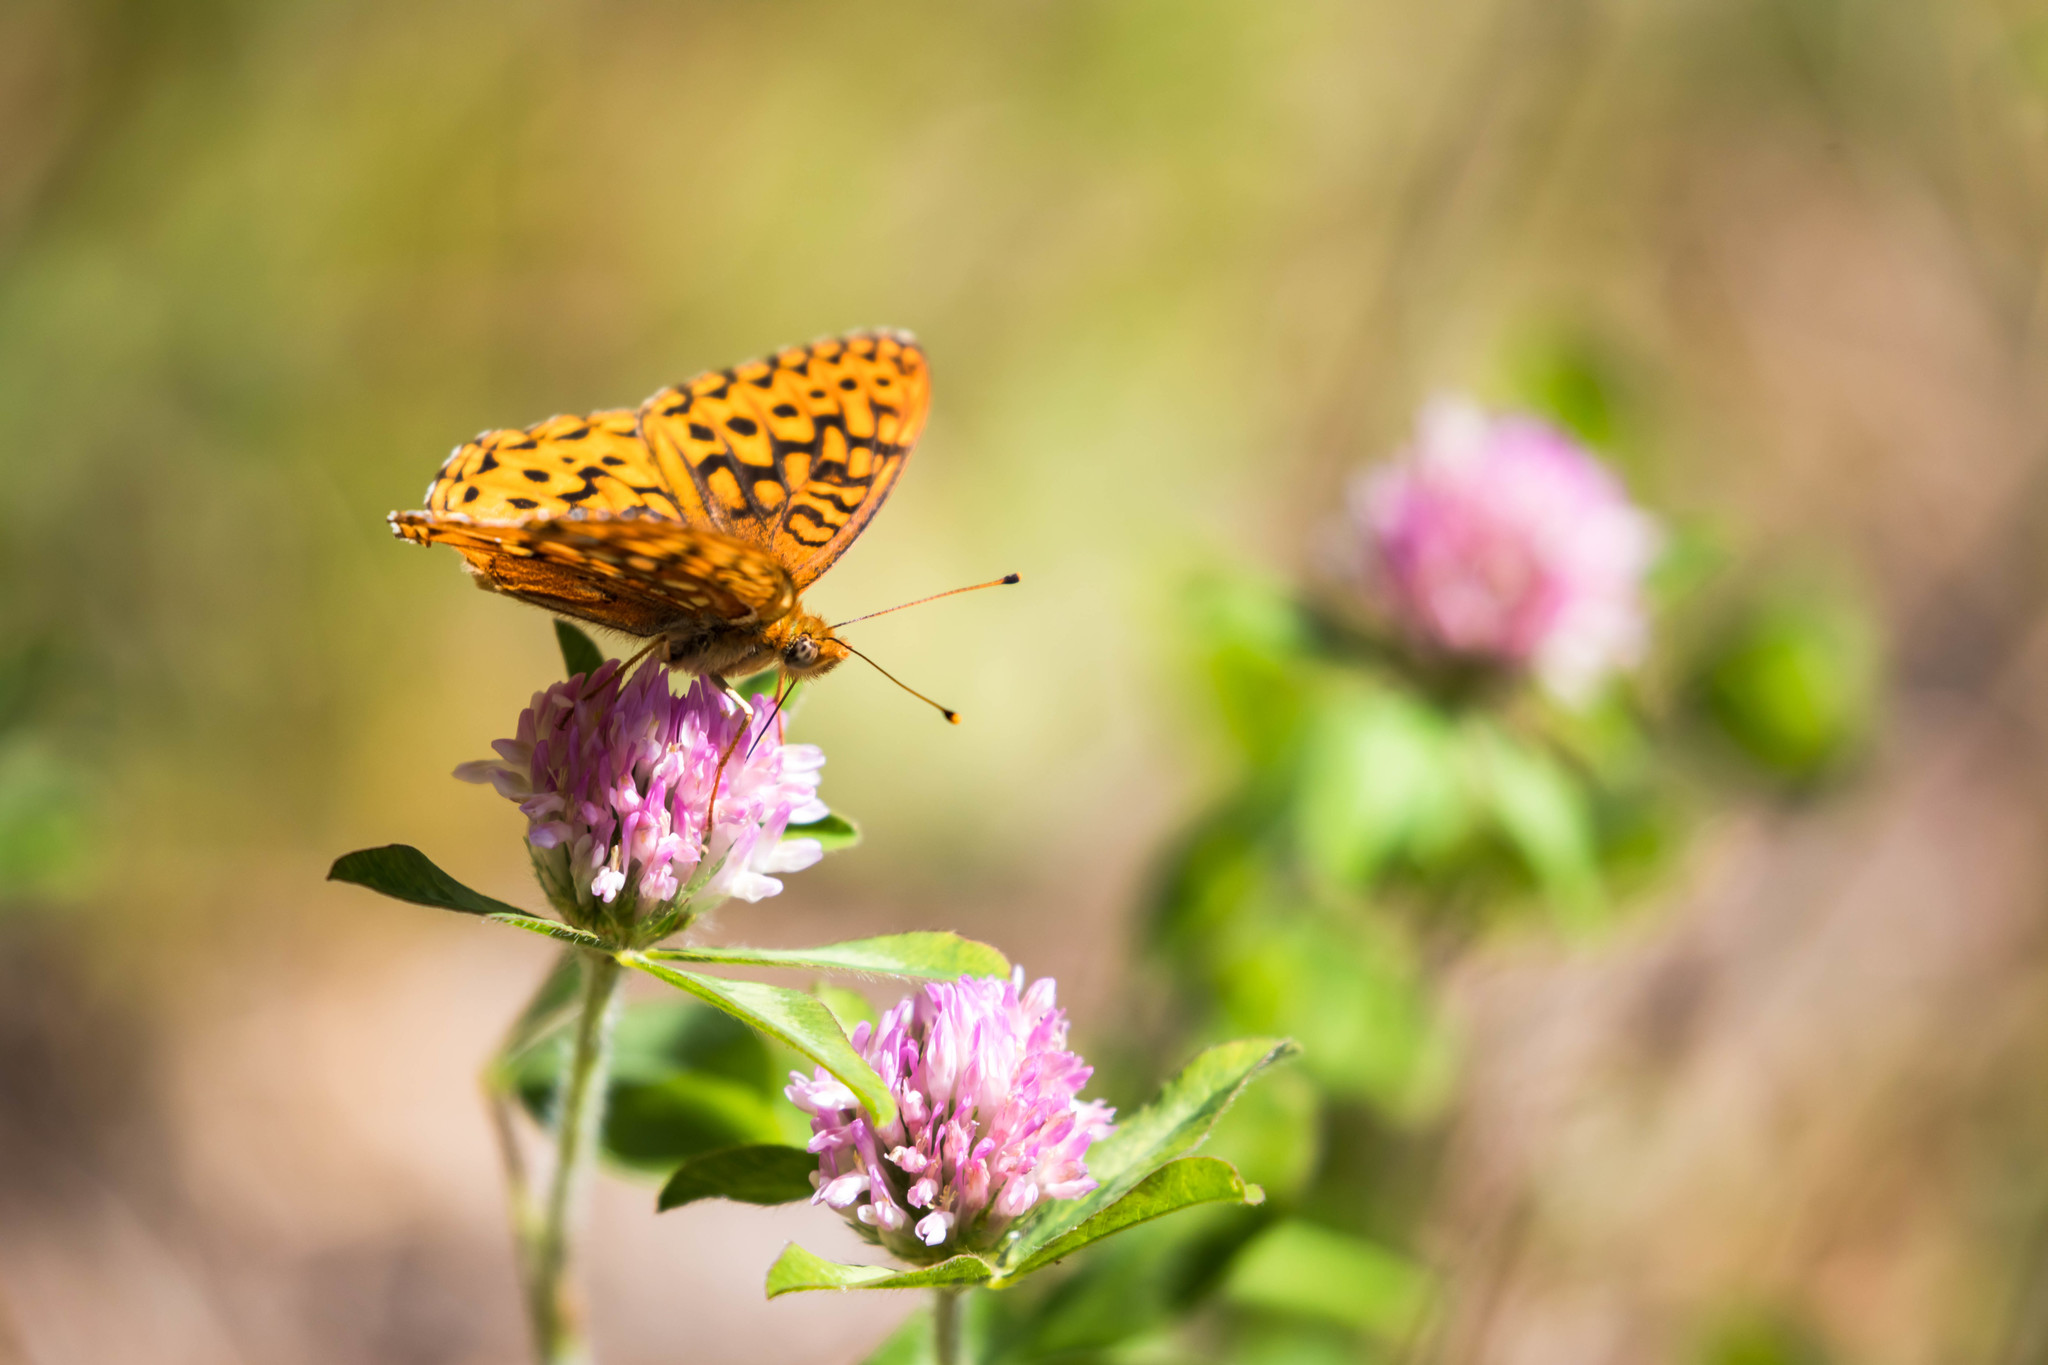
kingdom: Animalia
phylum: Arthropoda
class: Insecta
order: Lepidoptera
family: Nymphalidae
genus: Speyeria
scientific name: Speyeria hydaspe
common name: Hydaspe fritillary
